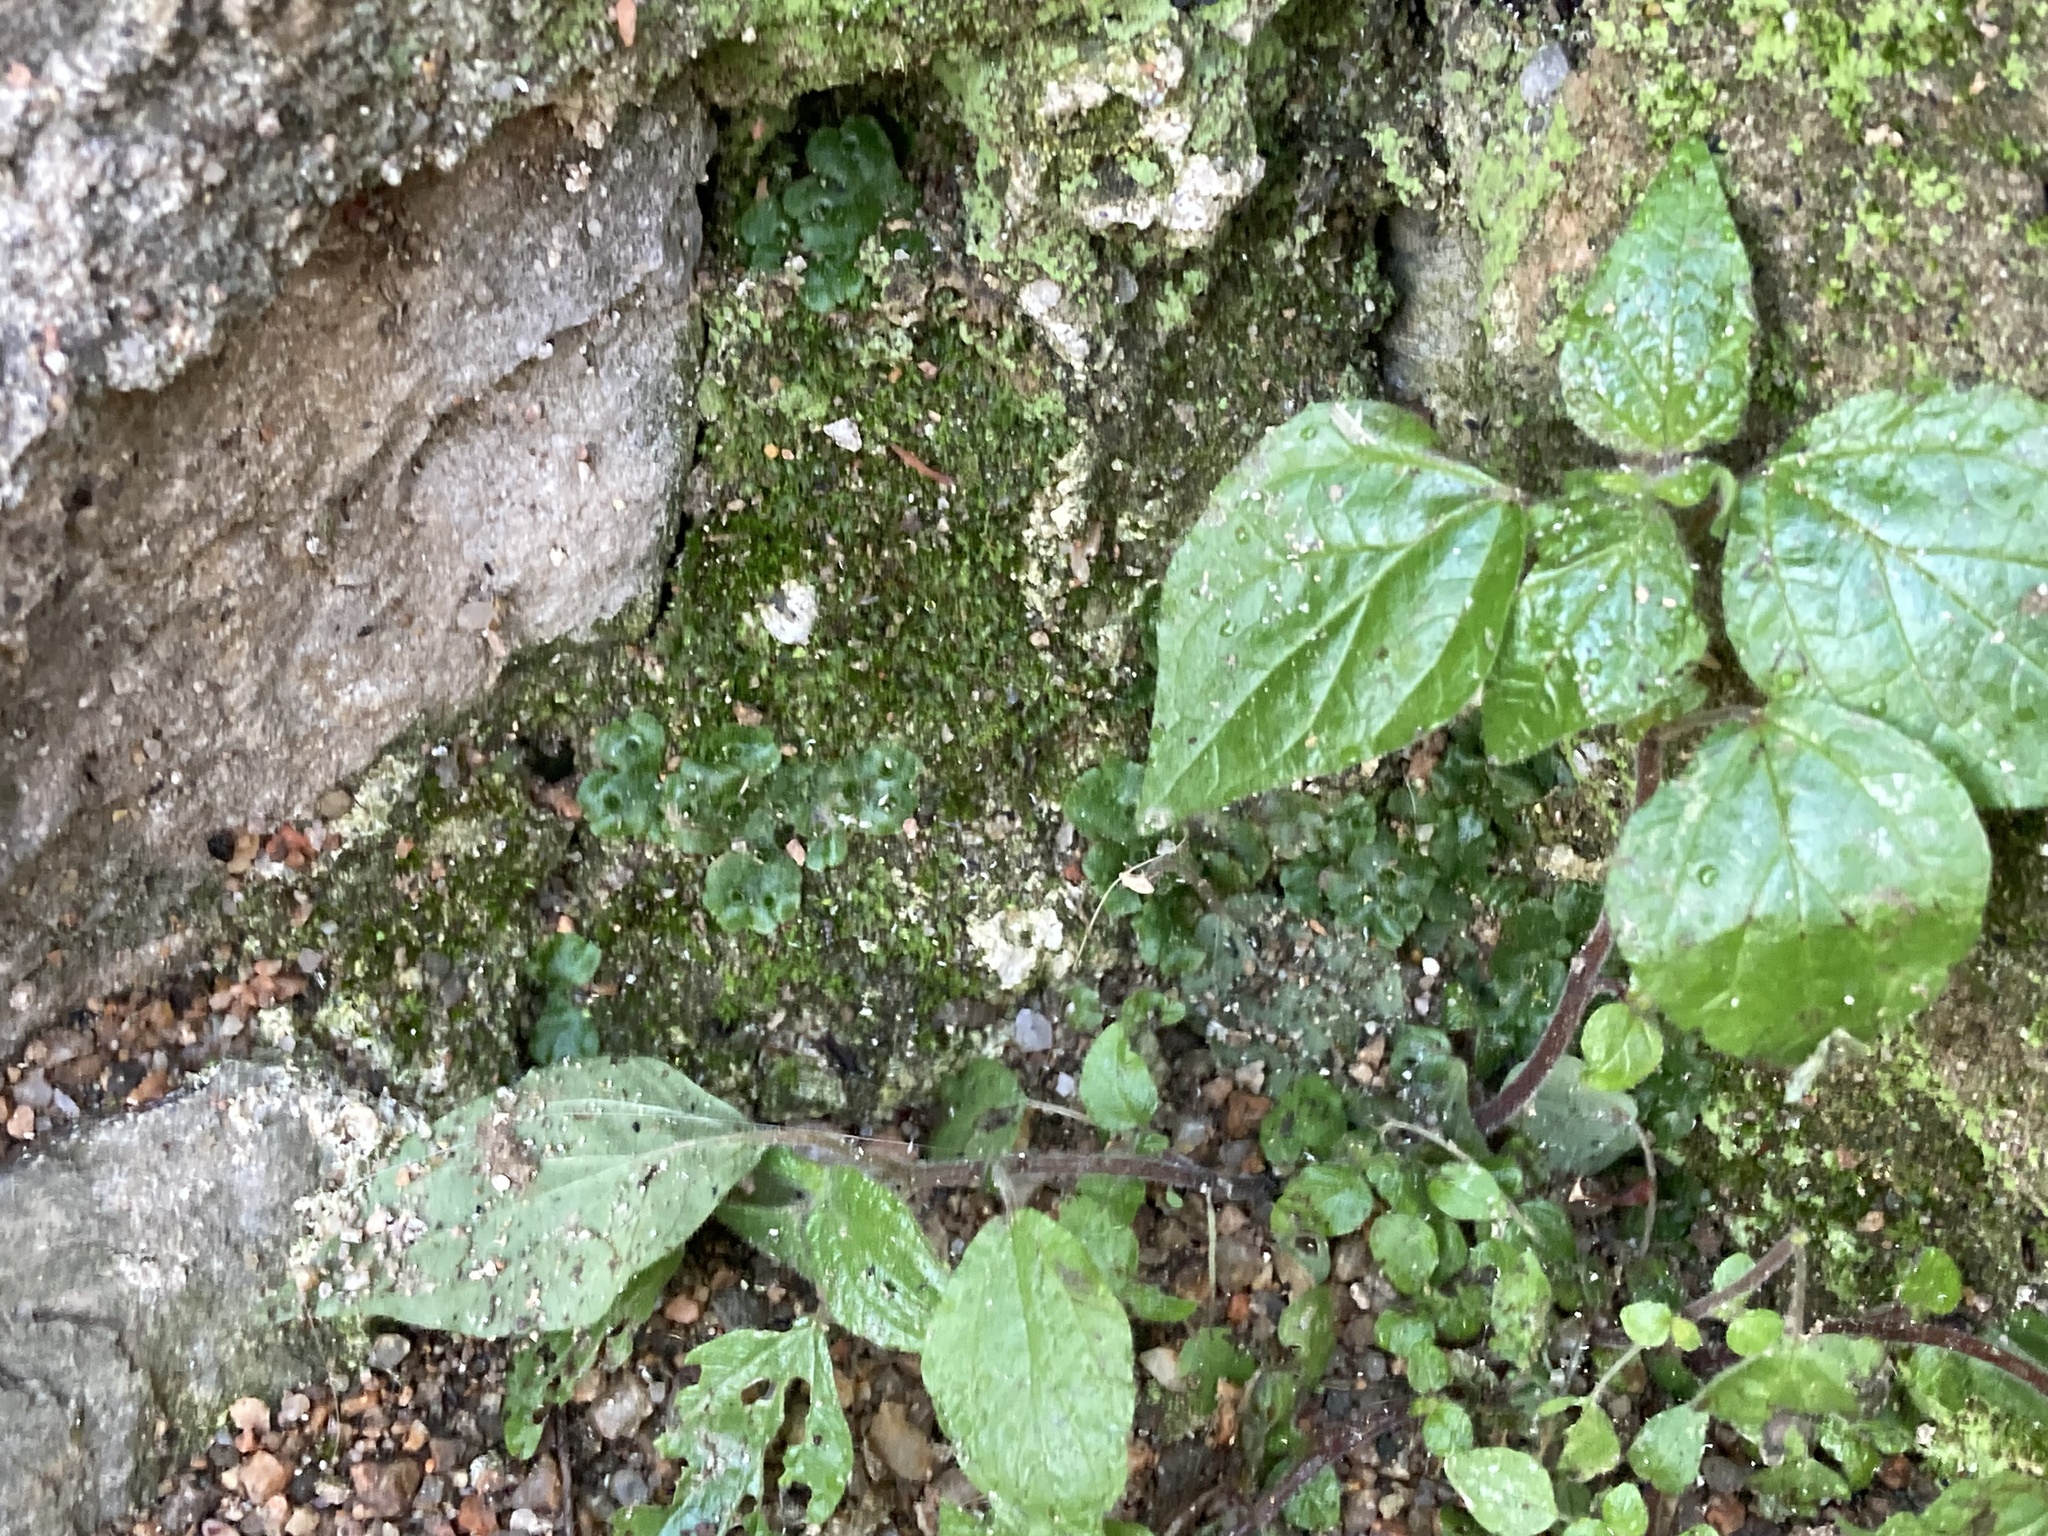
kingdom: Plantae
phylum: Marchantiophyta
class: Marchantiopsida
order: Marchantiales
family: Marchantiaceae
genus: Marchantia
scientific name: Marchantia polymorpha
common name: Common liverwort
